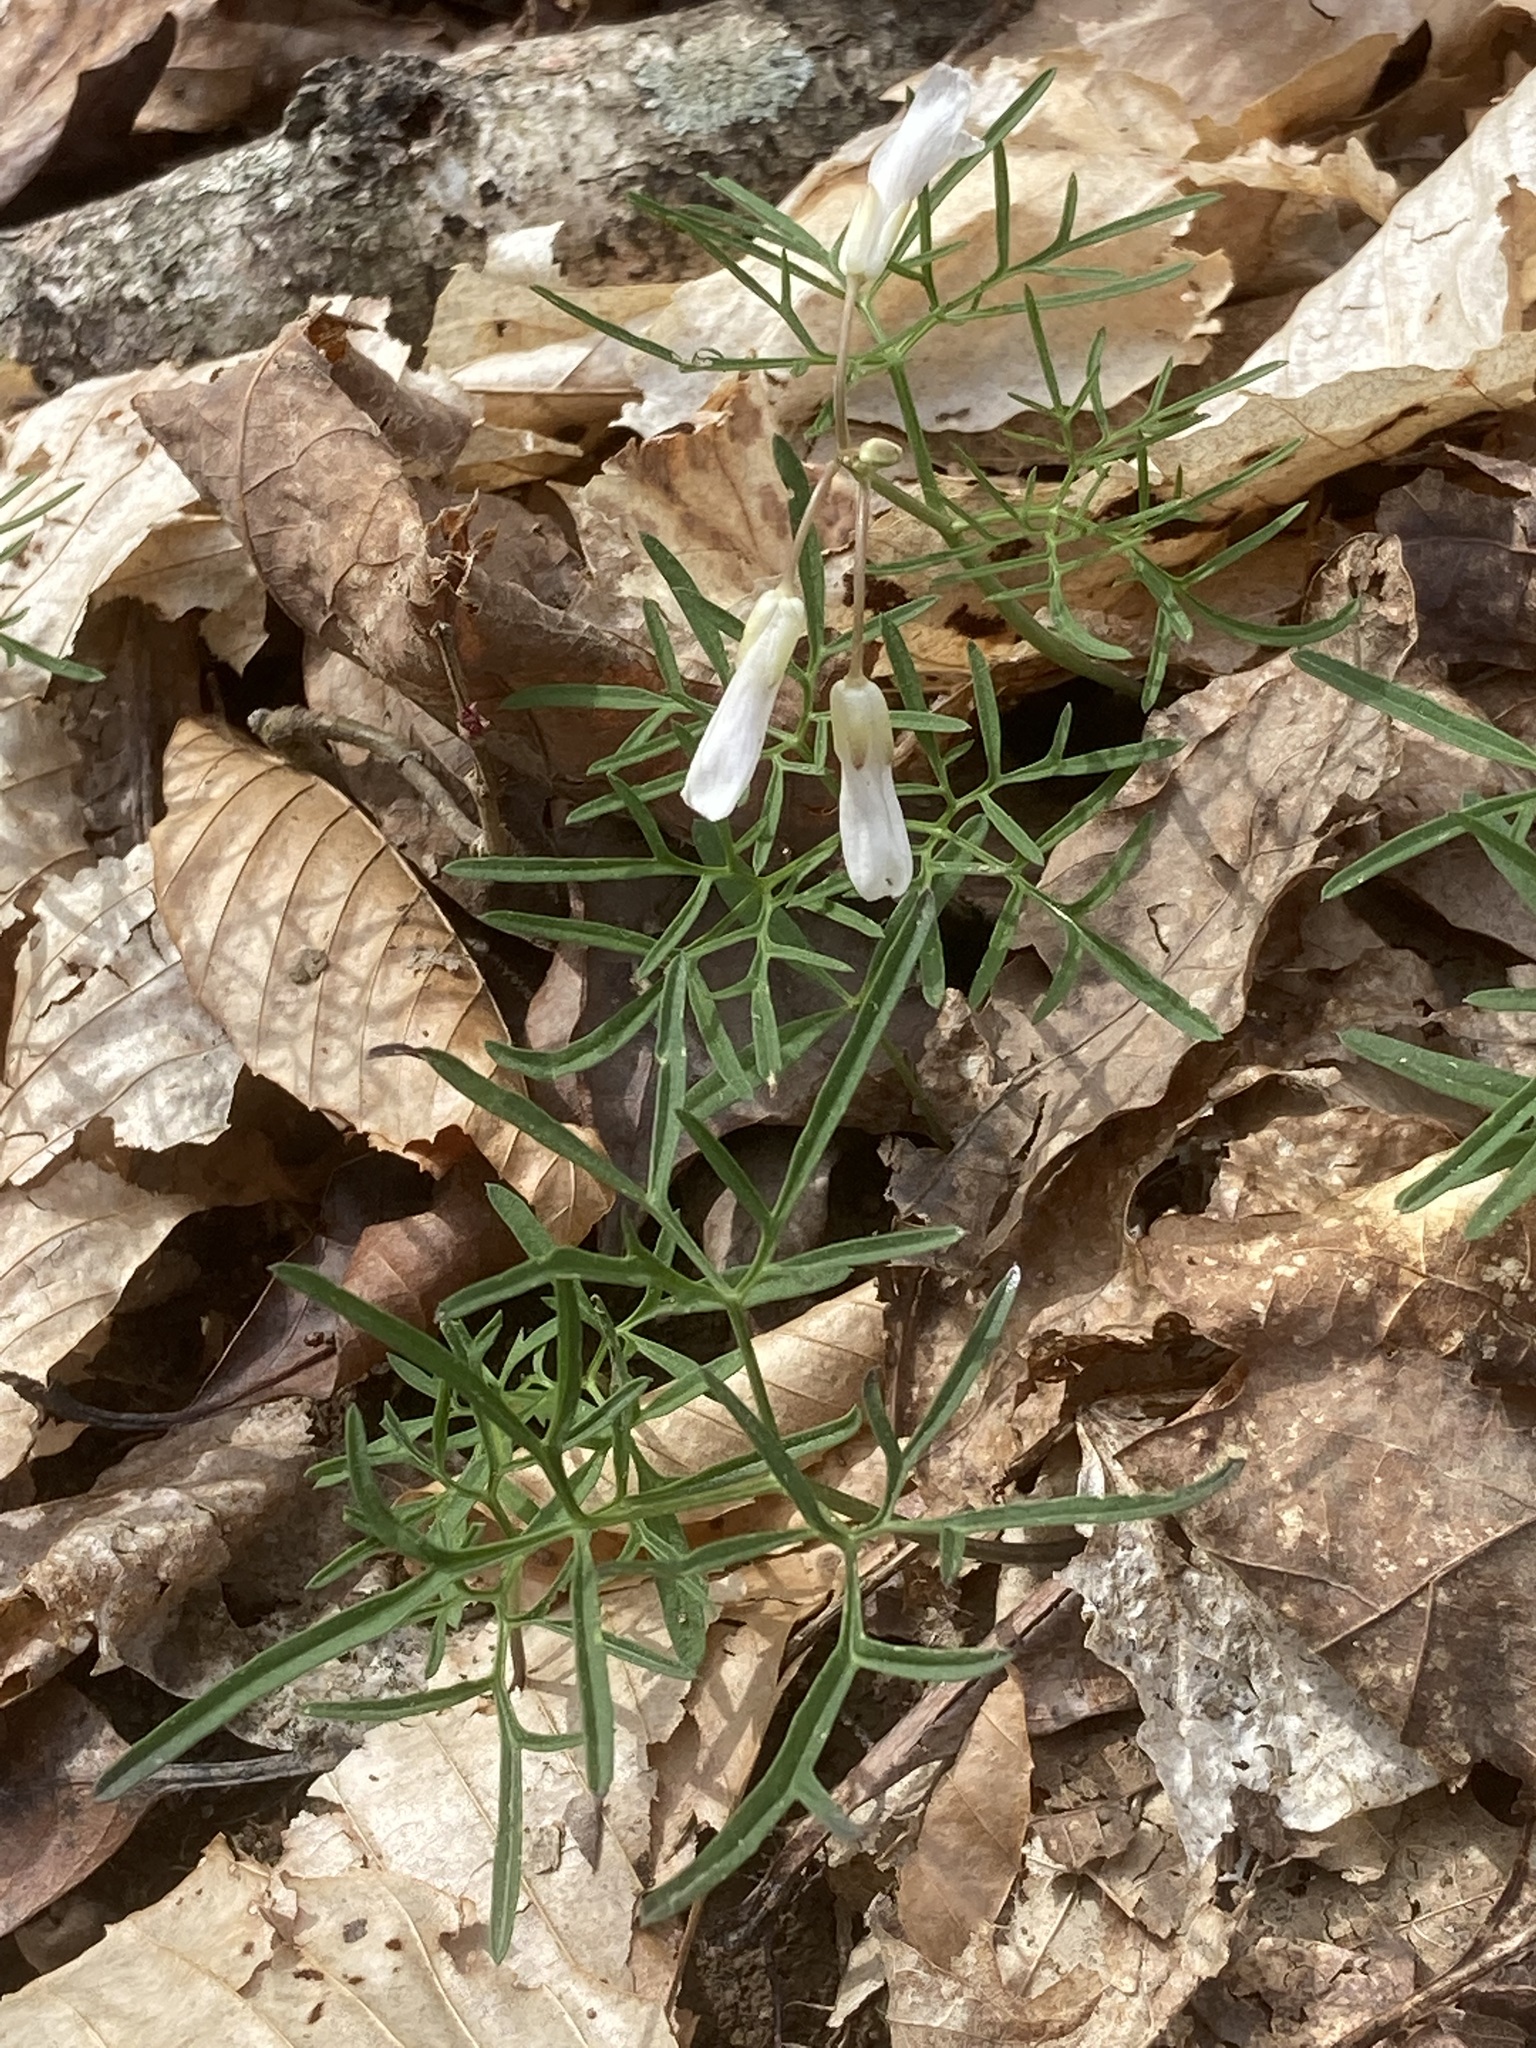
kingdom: Plantae
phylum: Tracheophyta
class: Magnoliopsida
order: Brassicales
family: Brassicaceae
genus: Cardamine
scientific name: Cardamine dissecta
